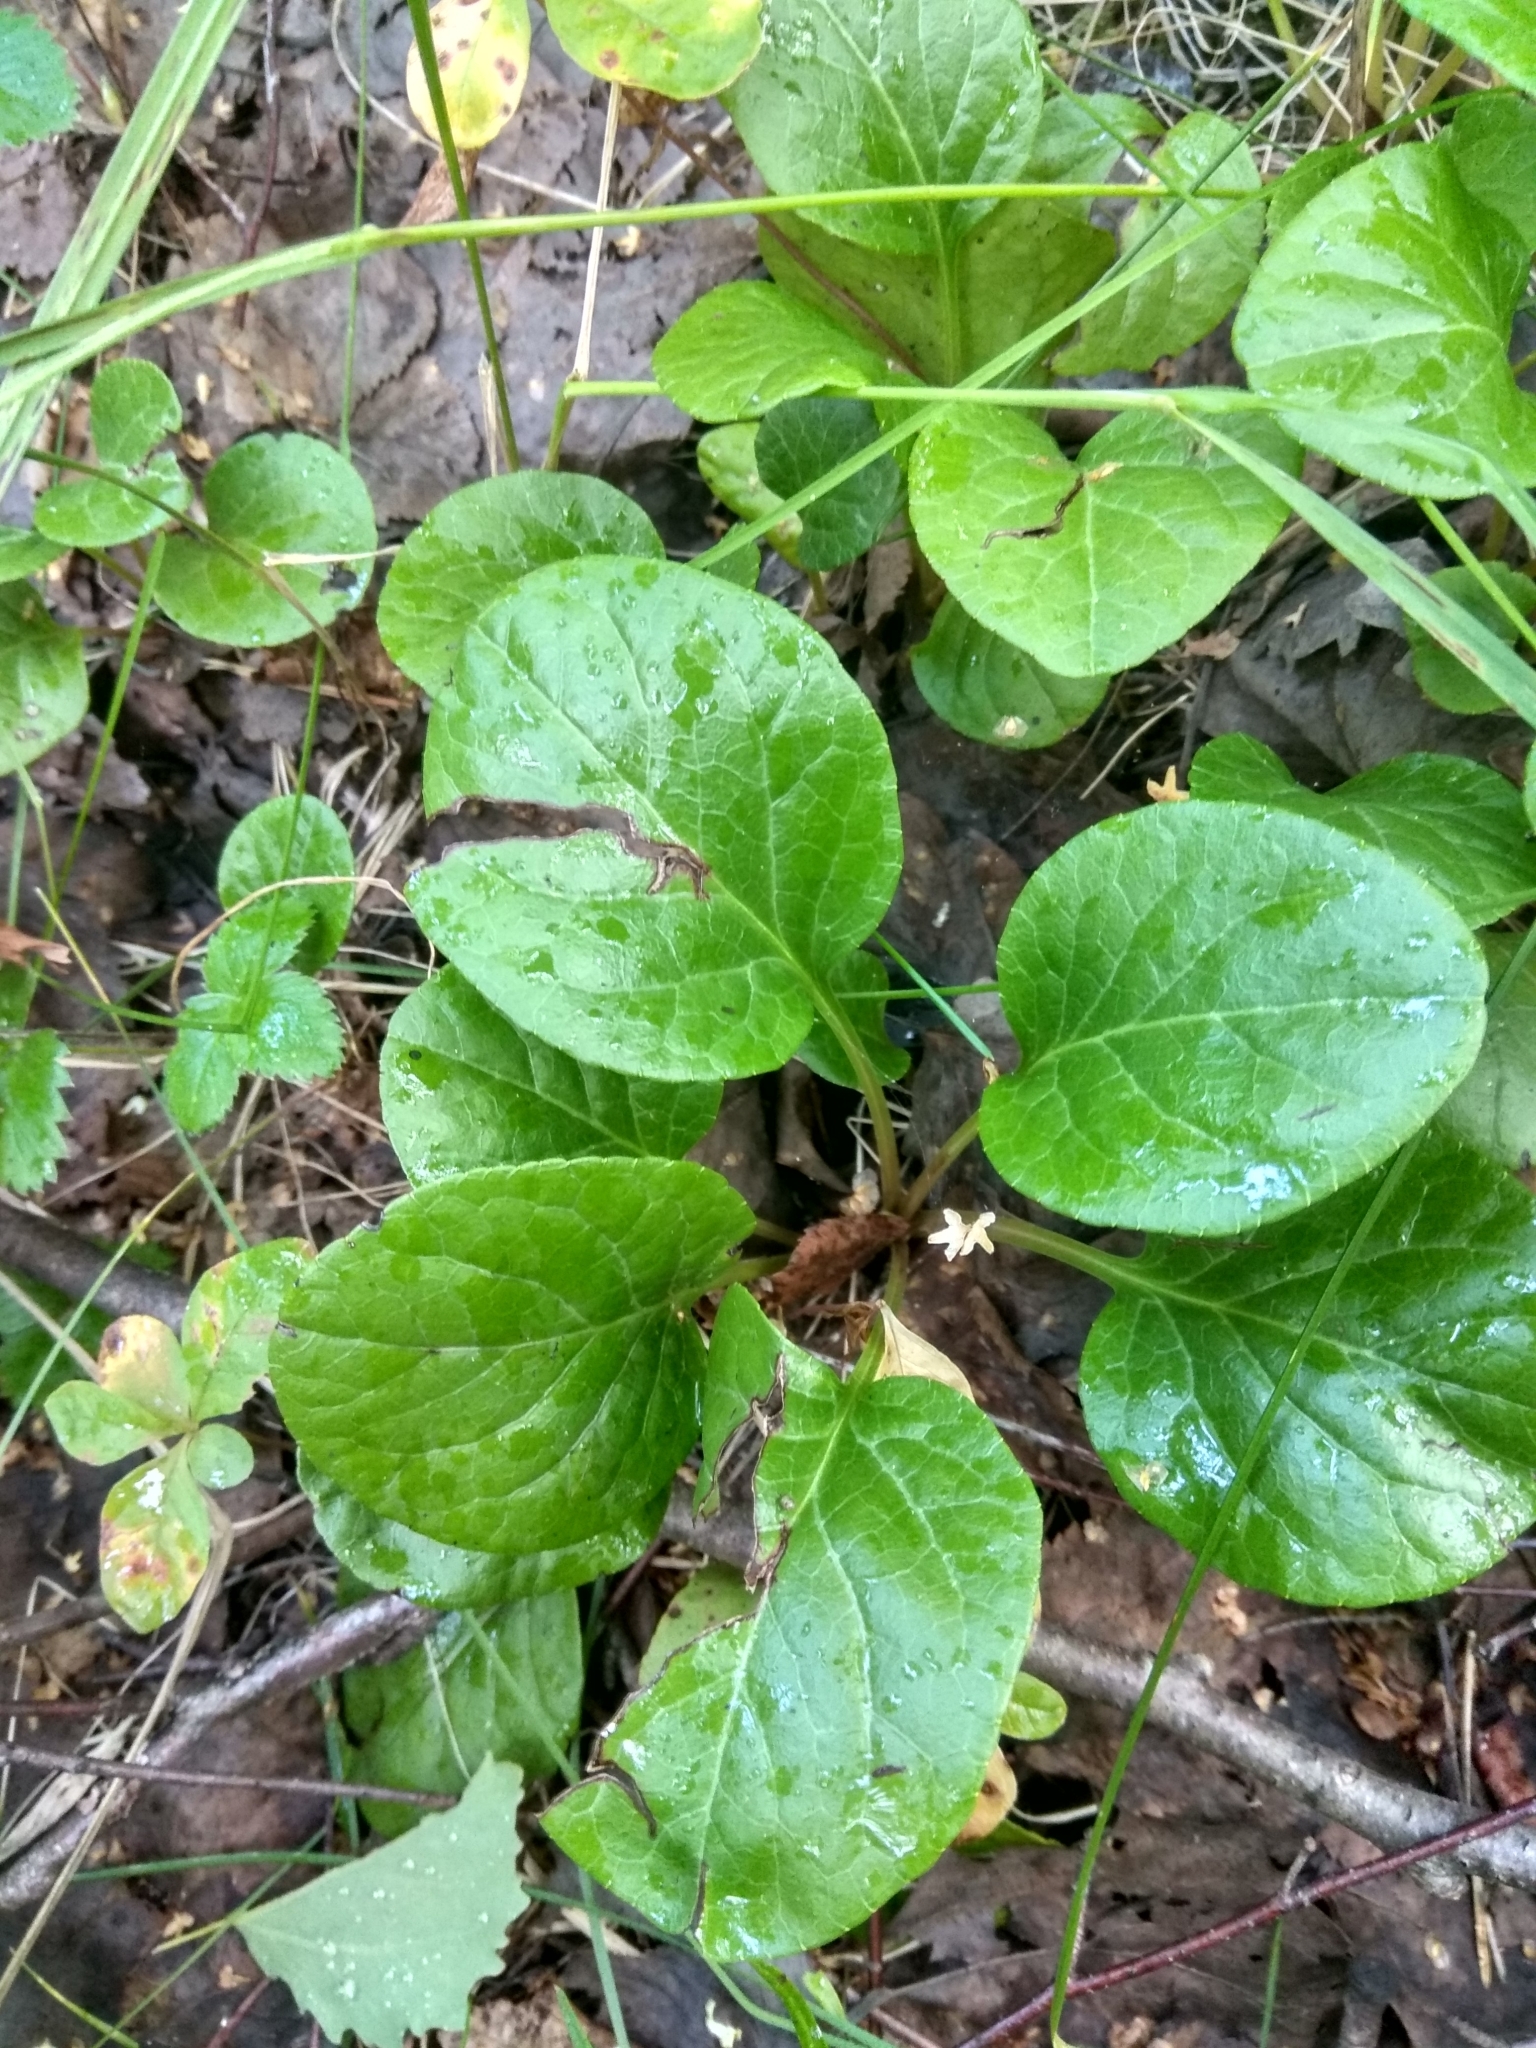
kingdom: Plantae
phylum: Tracheophyta
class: Magnoliopsida
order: Ericales
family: Ericaceae
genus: Pyrola
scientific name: Pyrola rotundifolia
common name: Round-leaved wintergreen
